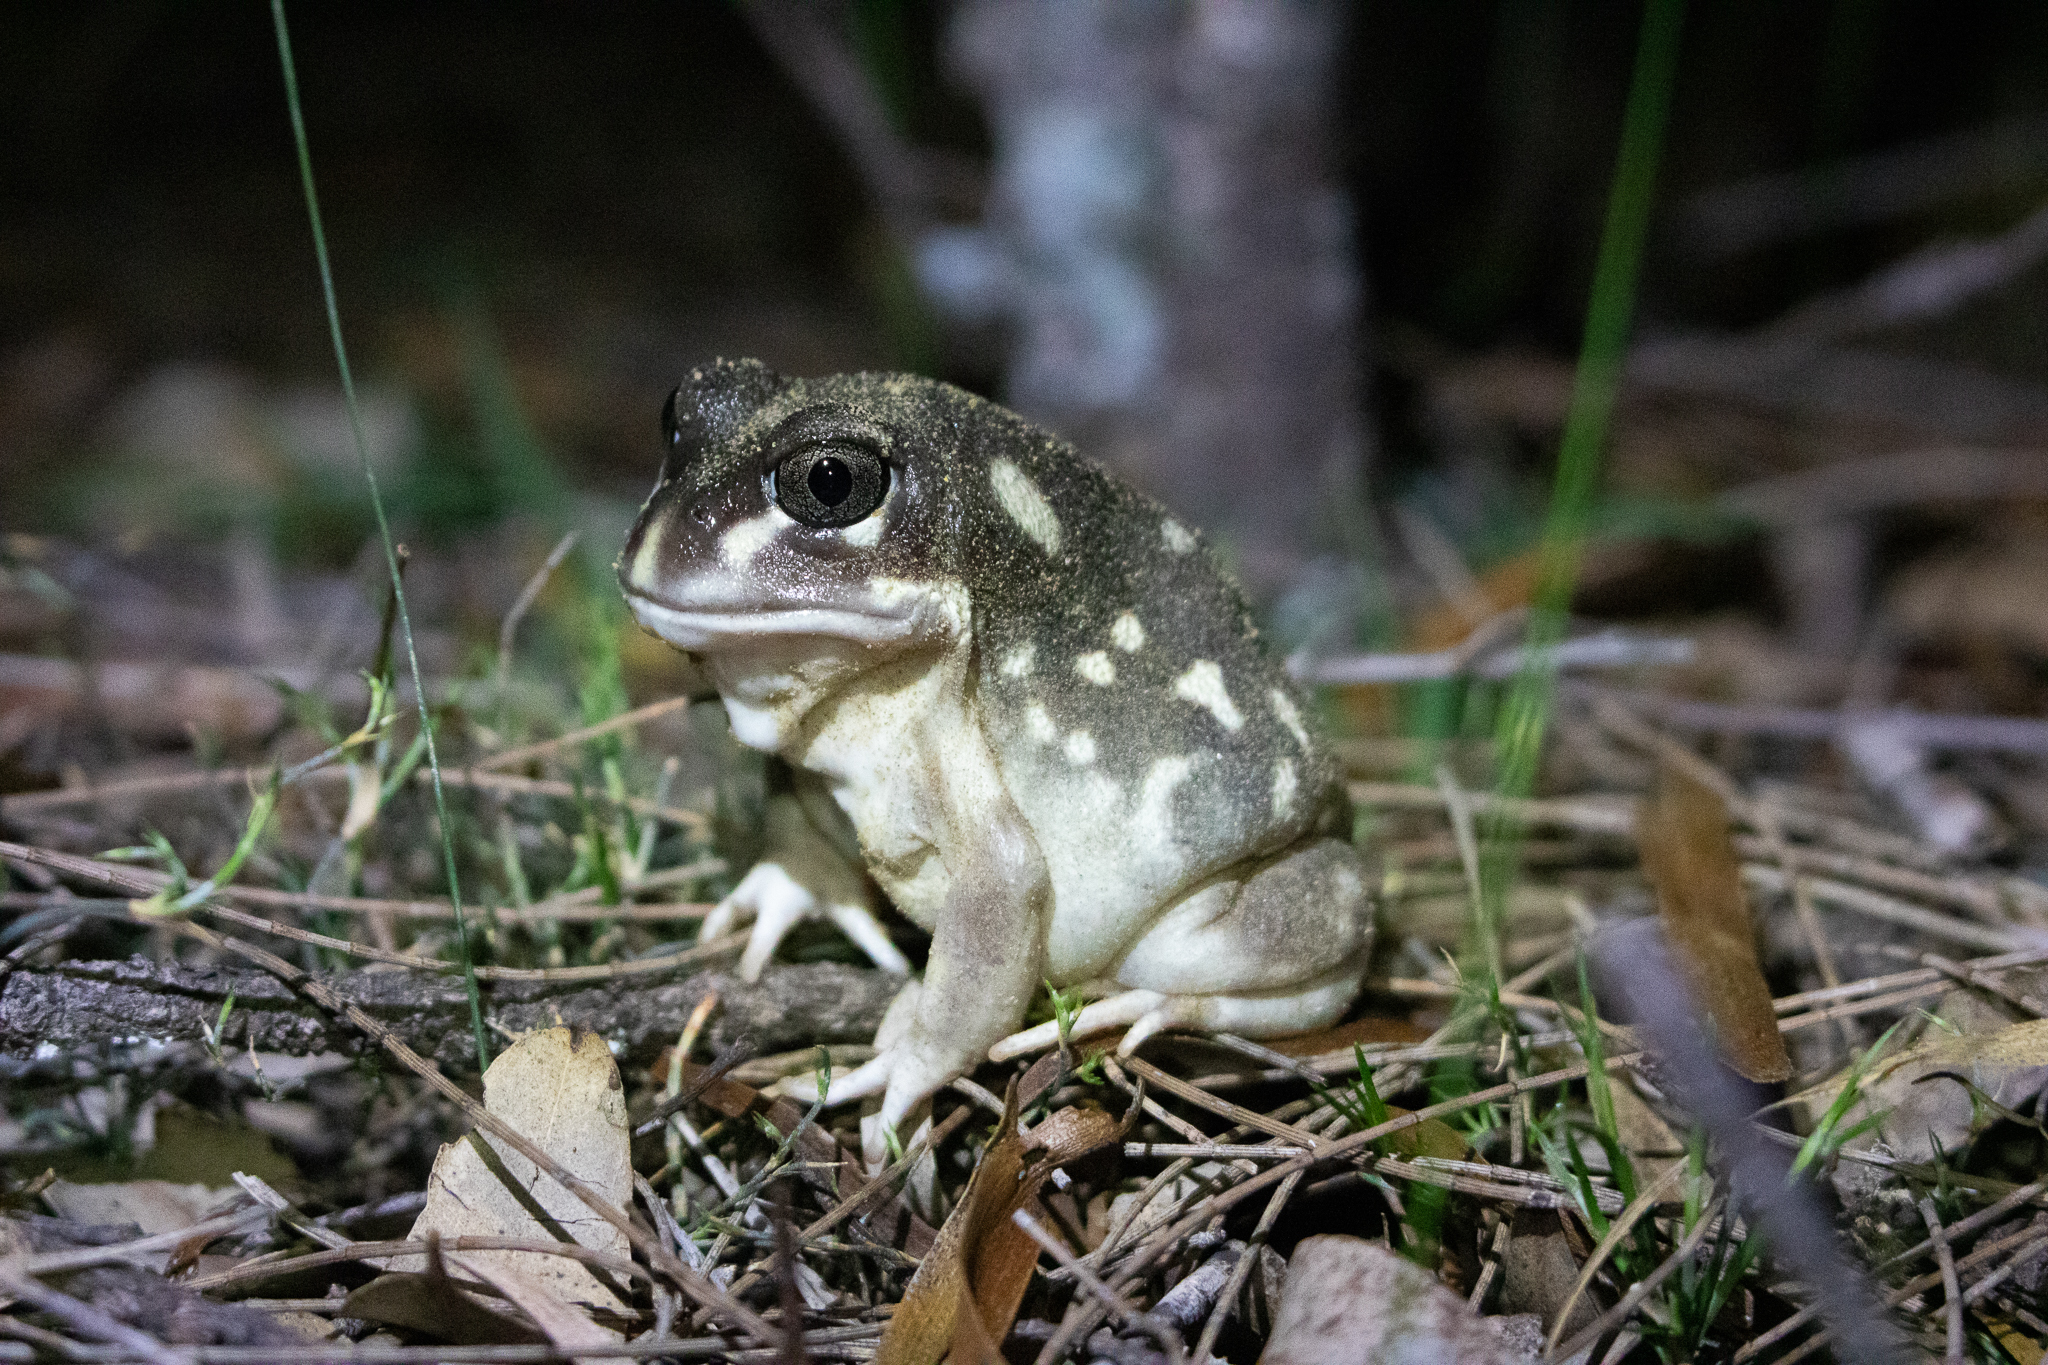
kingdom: Animalia
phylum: Chordata
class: Amphibia
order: Anura
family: Limnodynastidae
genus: Heleioporus
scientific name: Heleioporus albopunctatus
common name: Western spotted frog
